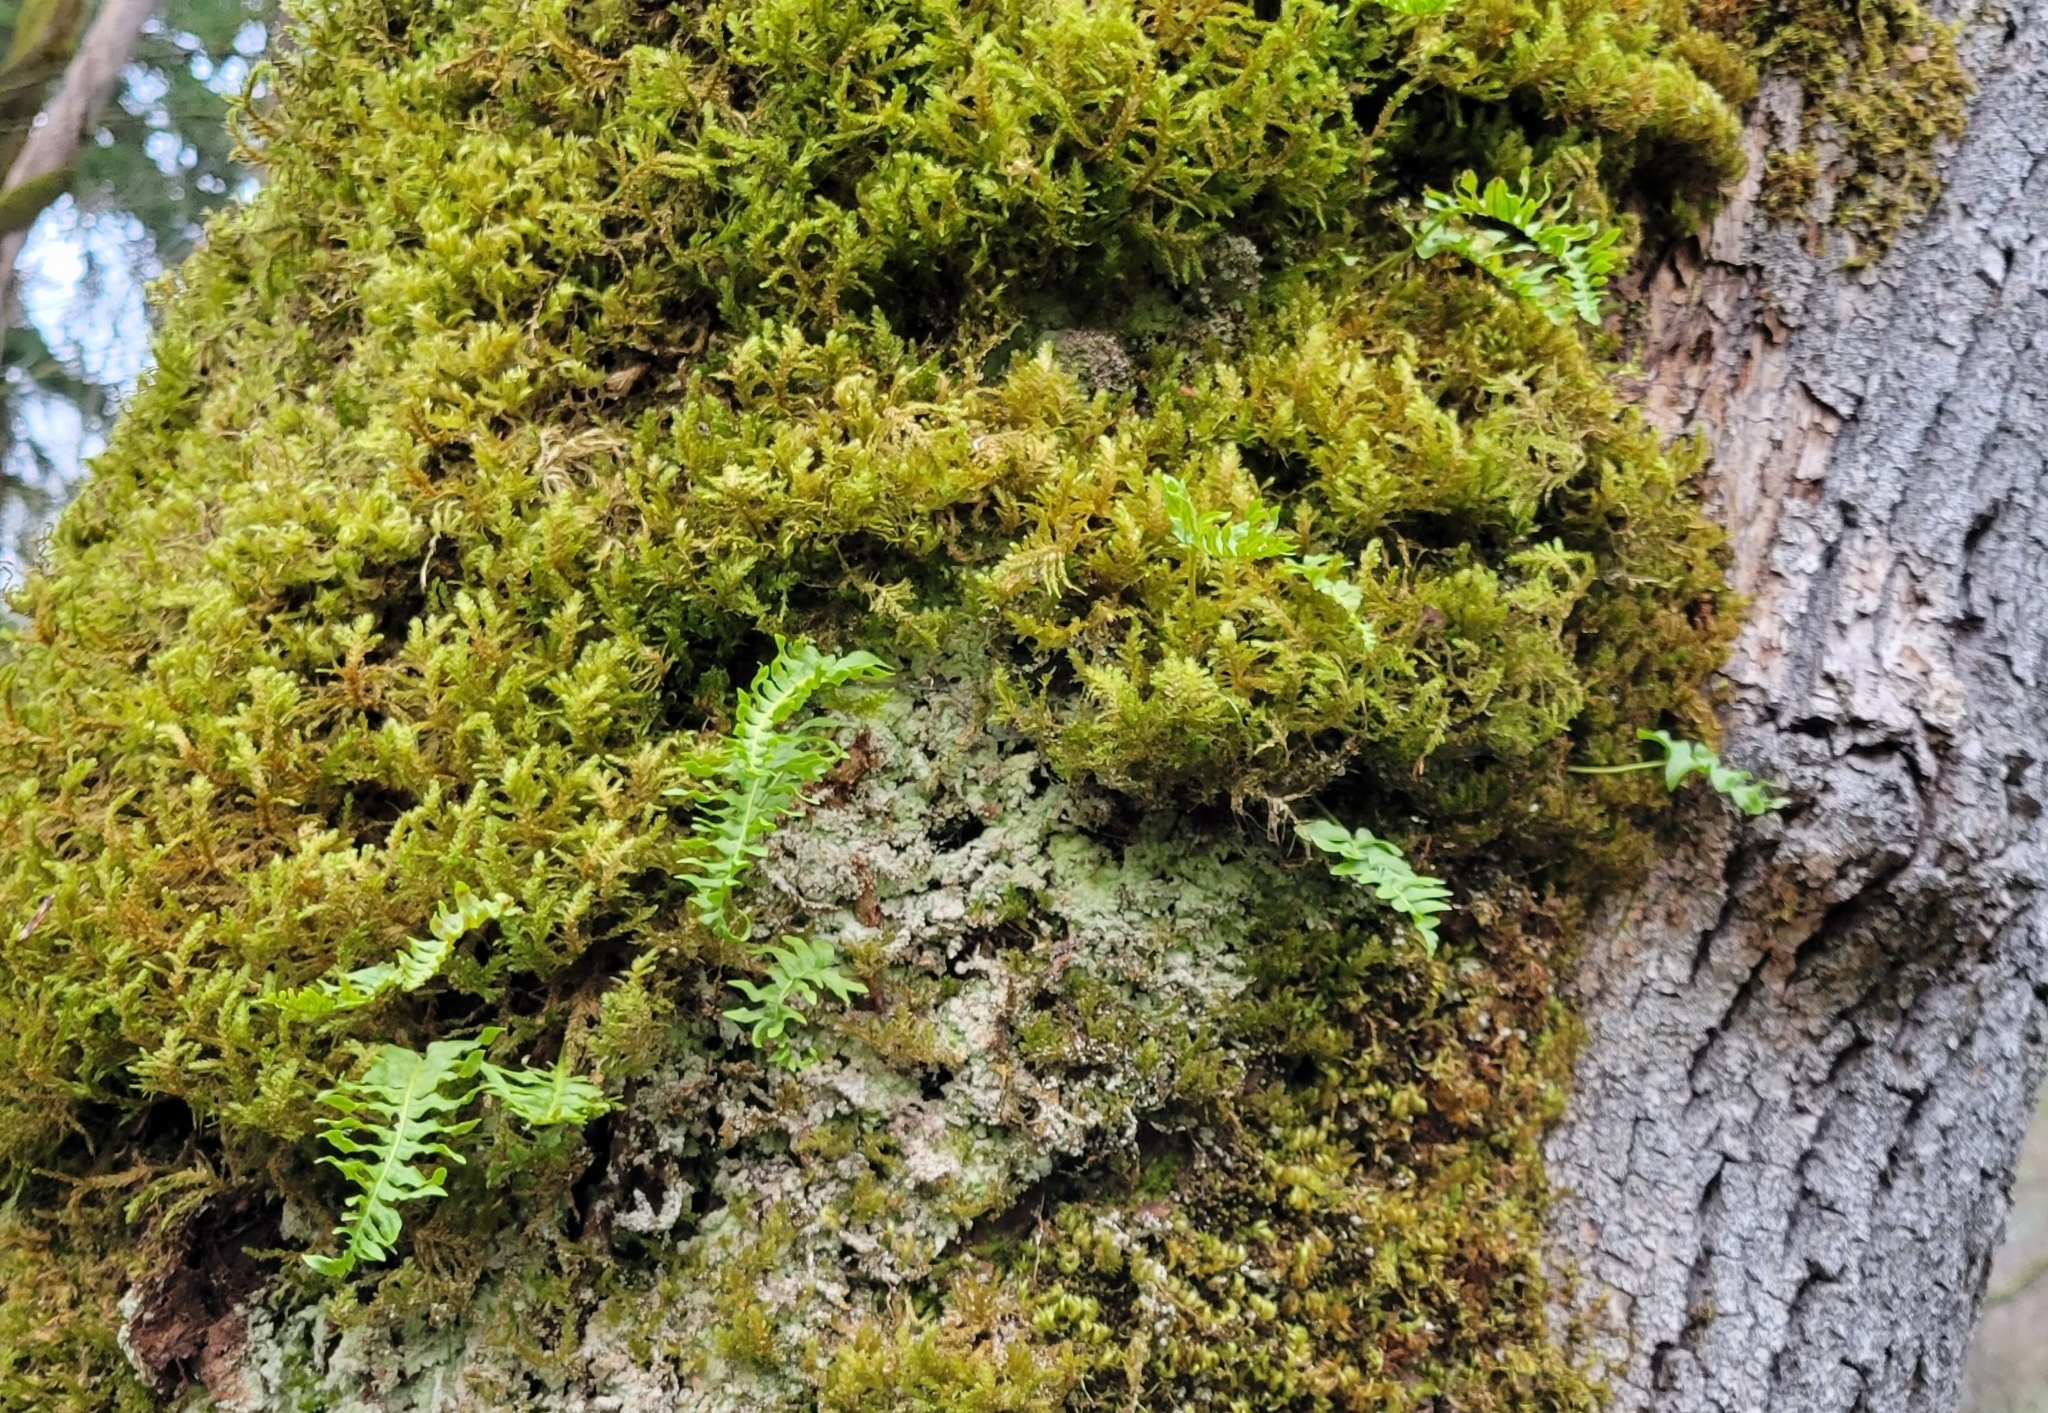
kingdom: Plantae
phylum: Tracheophyta
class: Polypodiopsida
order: Polypodiales
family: Polypodiaceae
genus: Polypodium
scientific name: Polypodium glycyrrhiza
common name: Licorice fern
